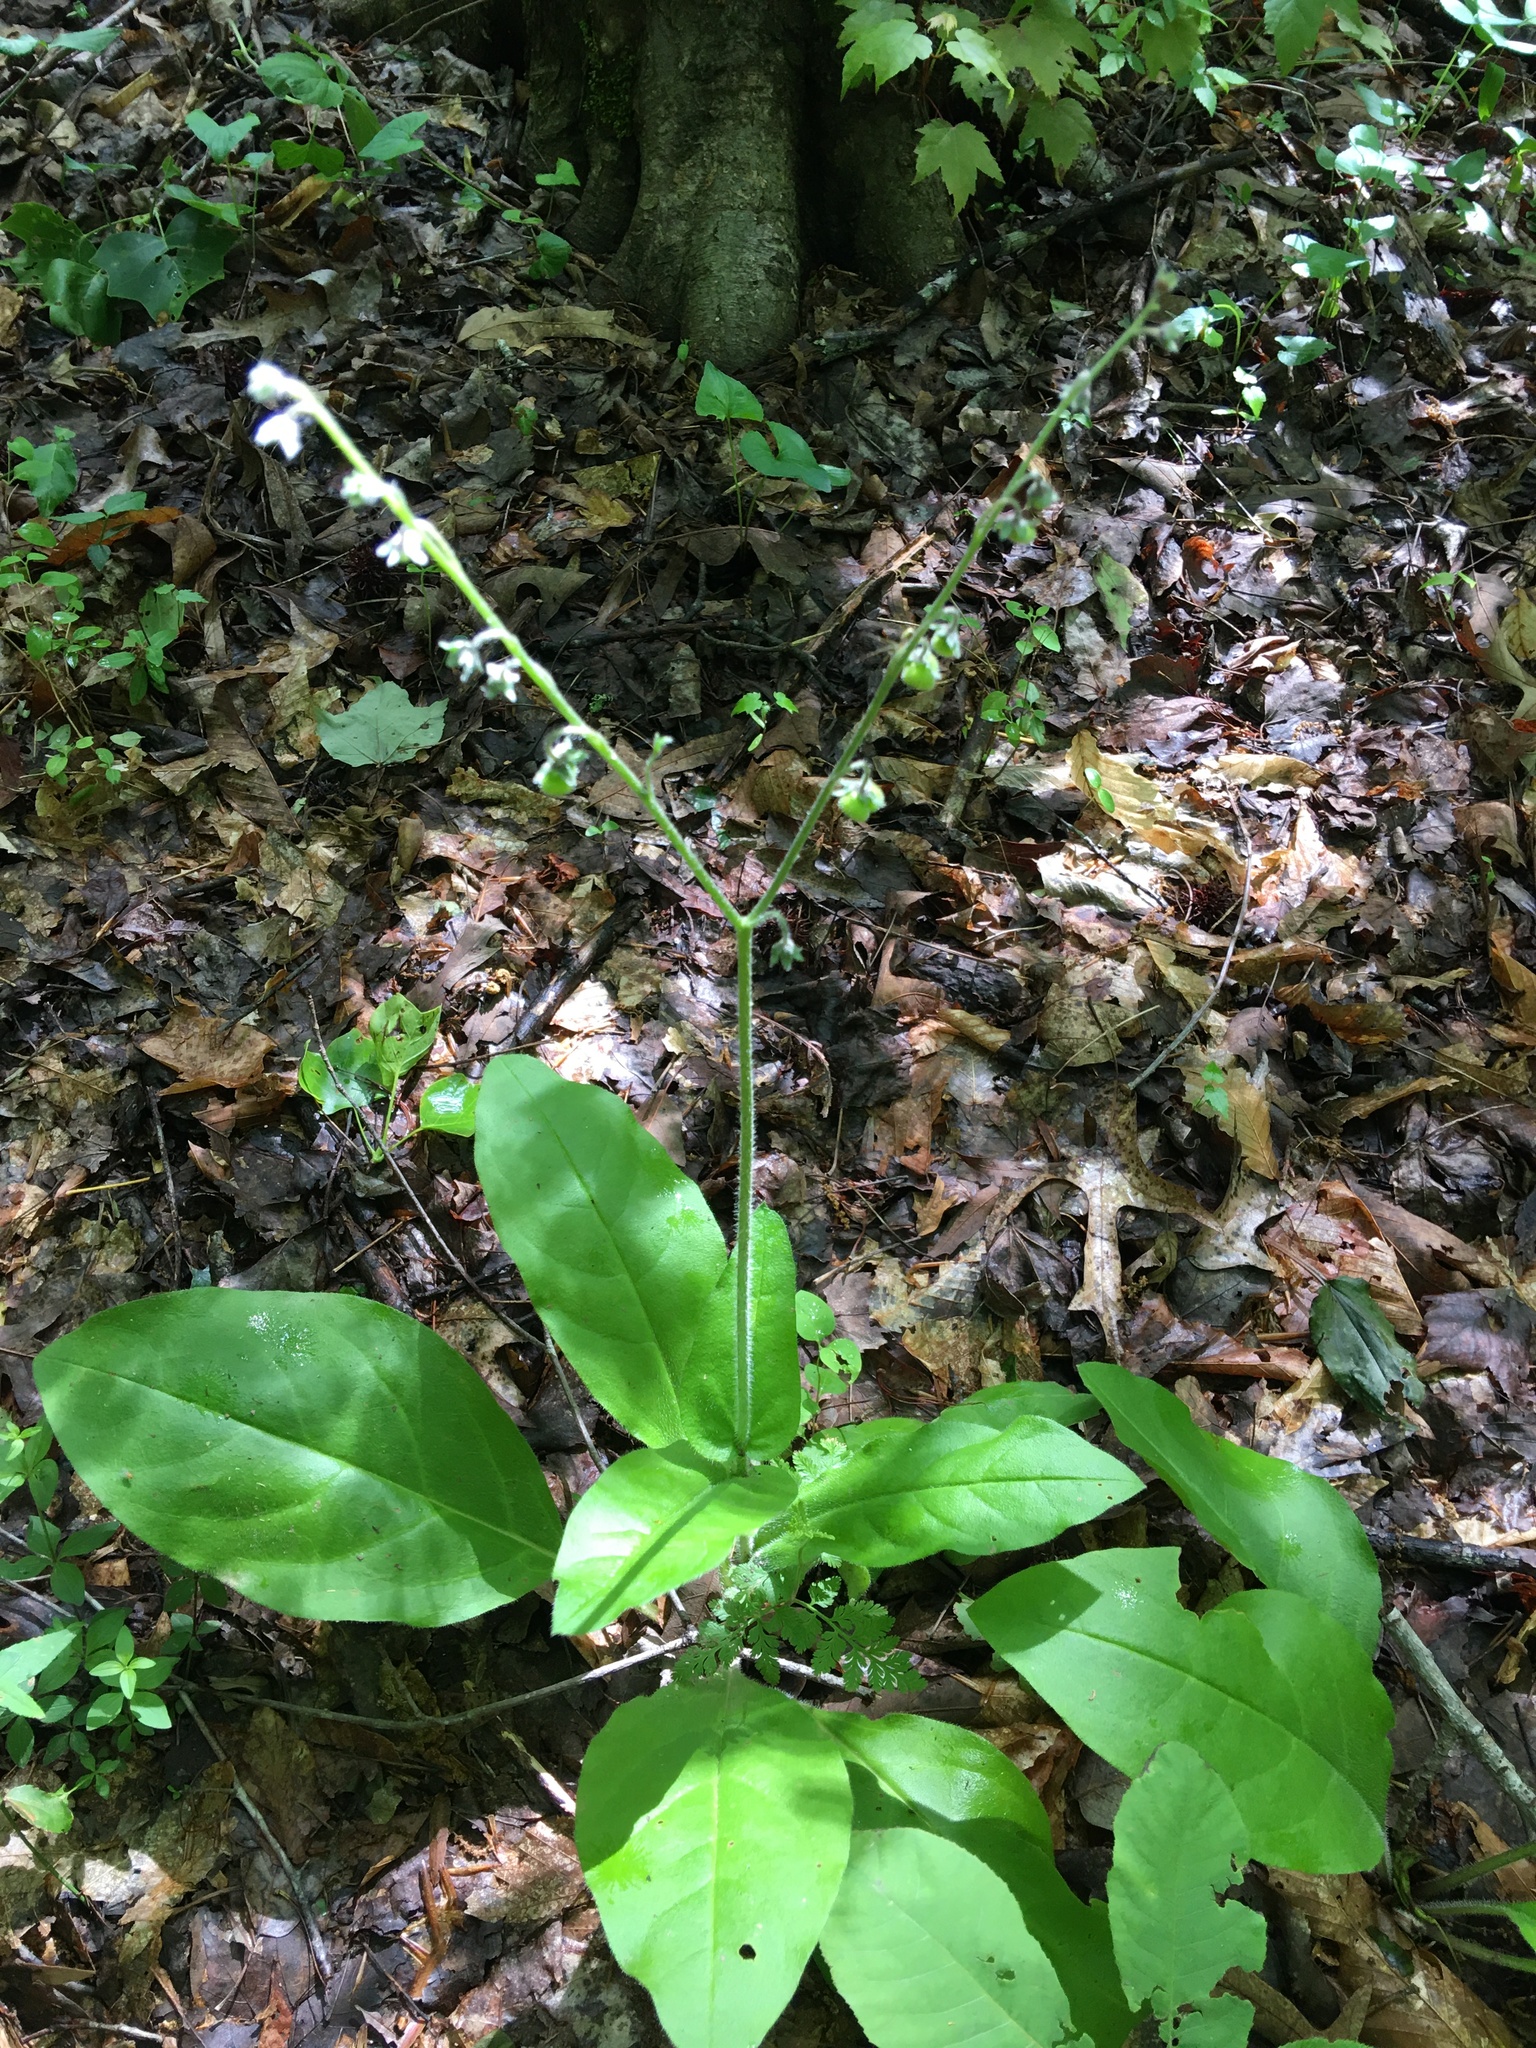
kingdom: Plantae
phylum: Tracheophyta
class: Magnoliopsida
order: Boraginales
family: Boraginaceae
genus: Andersonglossum
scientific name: Andersonglossum virginianum
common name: Wild comfrey
